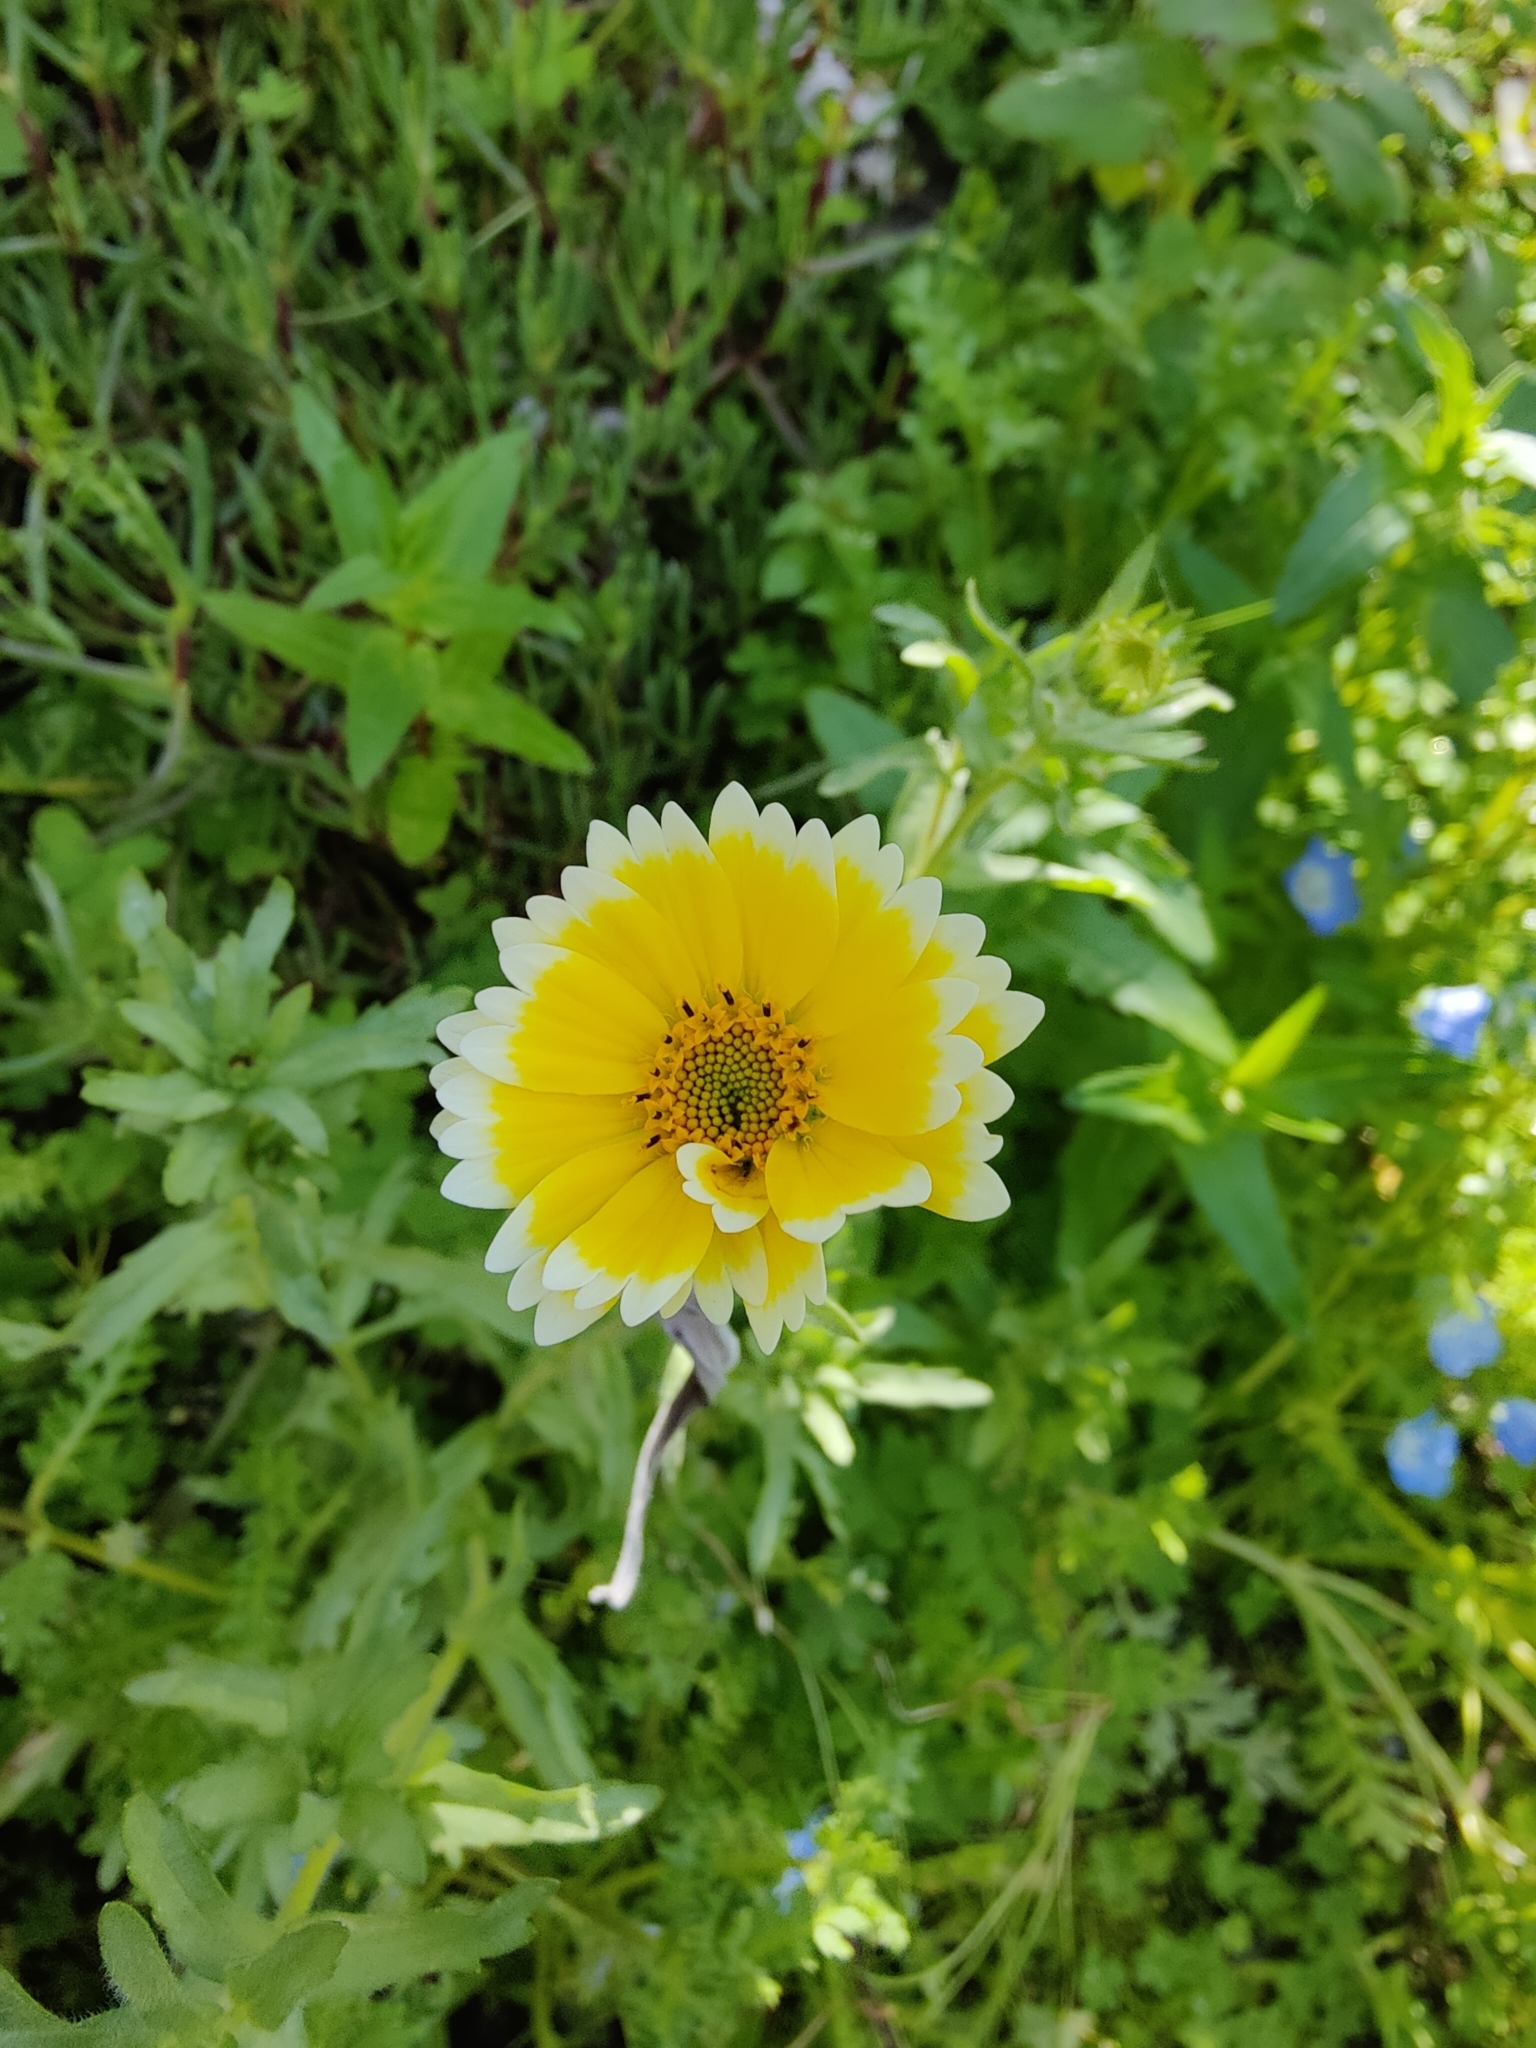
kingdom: Plantae
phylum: Tracheophyta
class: Magnoliopsida
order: Asterales
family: Asteraceae
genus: Layia
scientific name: Layia platyglossa
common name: Tidy-tips
